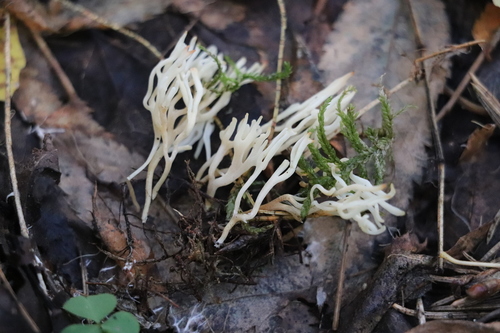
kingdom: Fungi
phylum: Basidiomycota
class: Agaricomycetes
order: Agaricales
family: Clavariaceae
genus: Ramariopsis
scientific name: Ramariopsis
